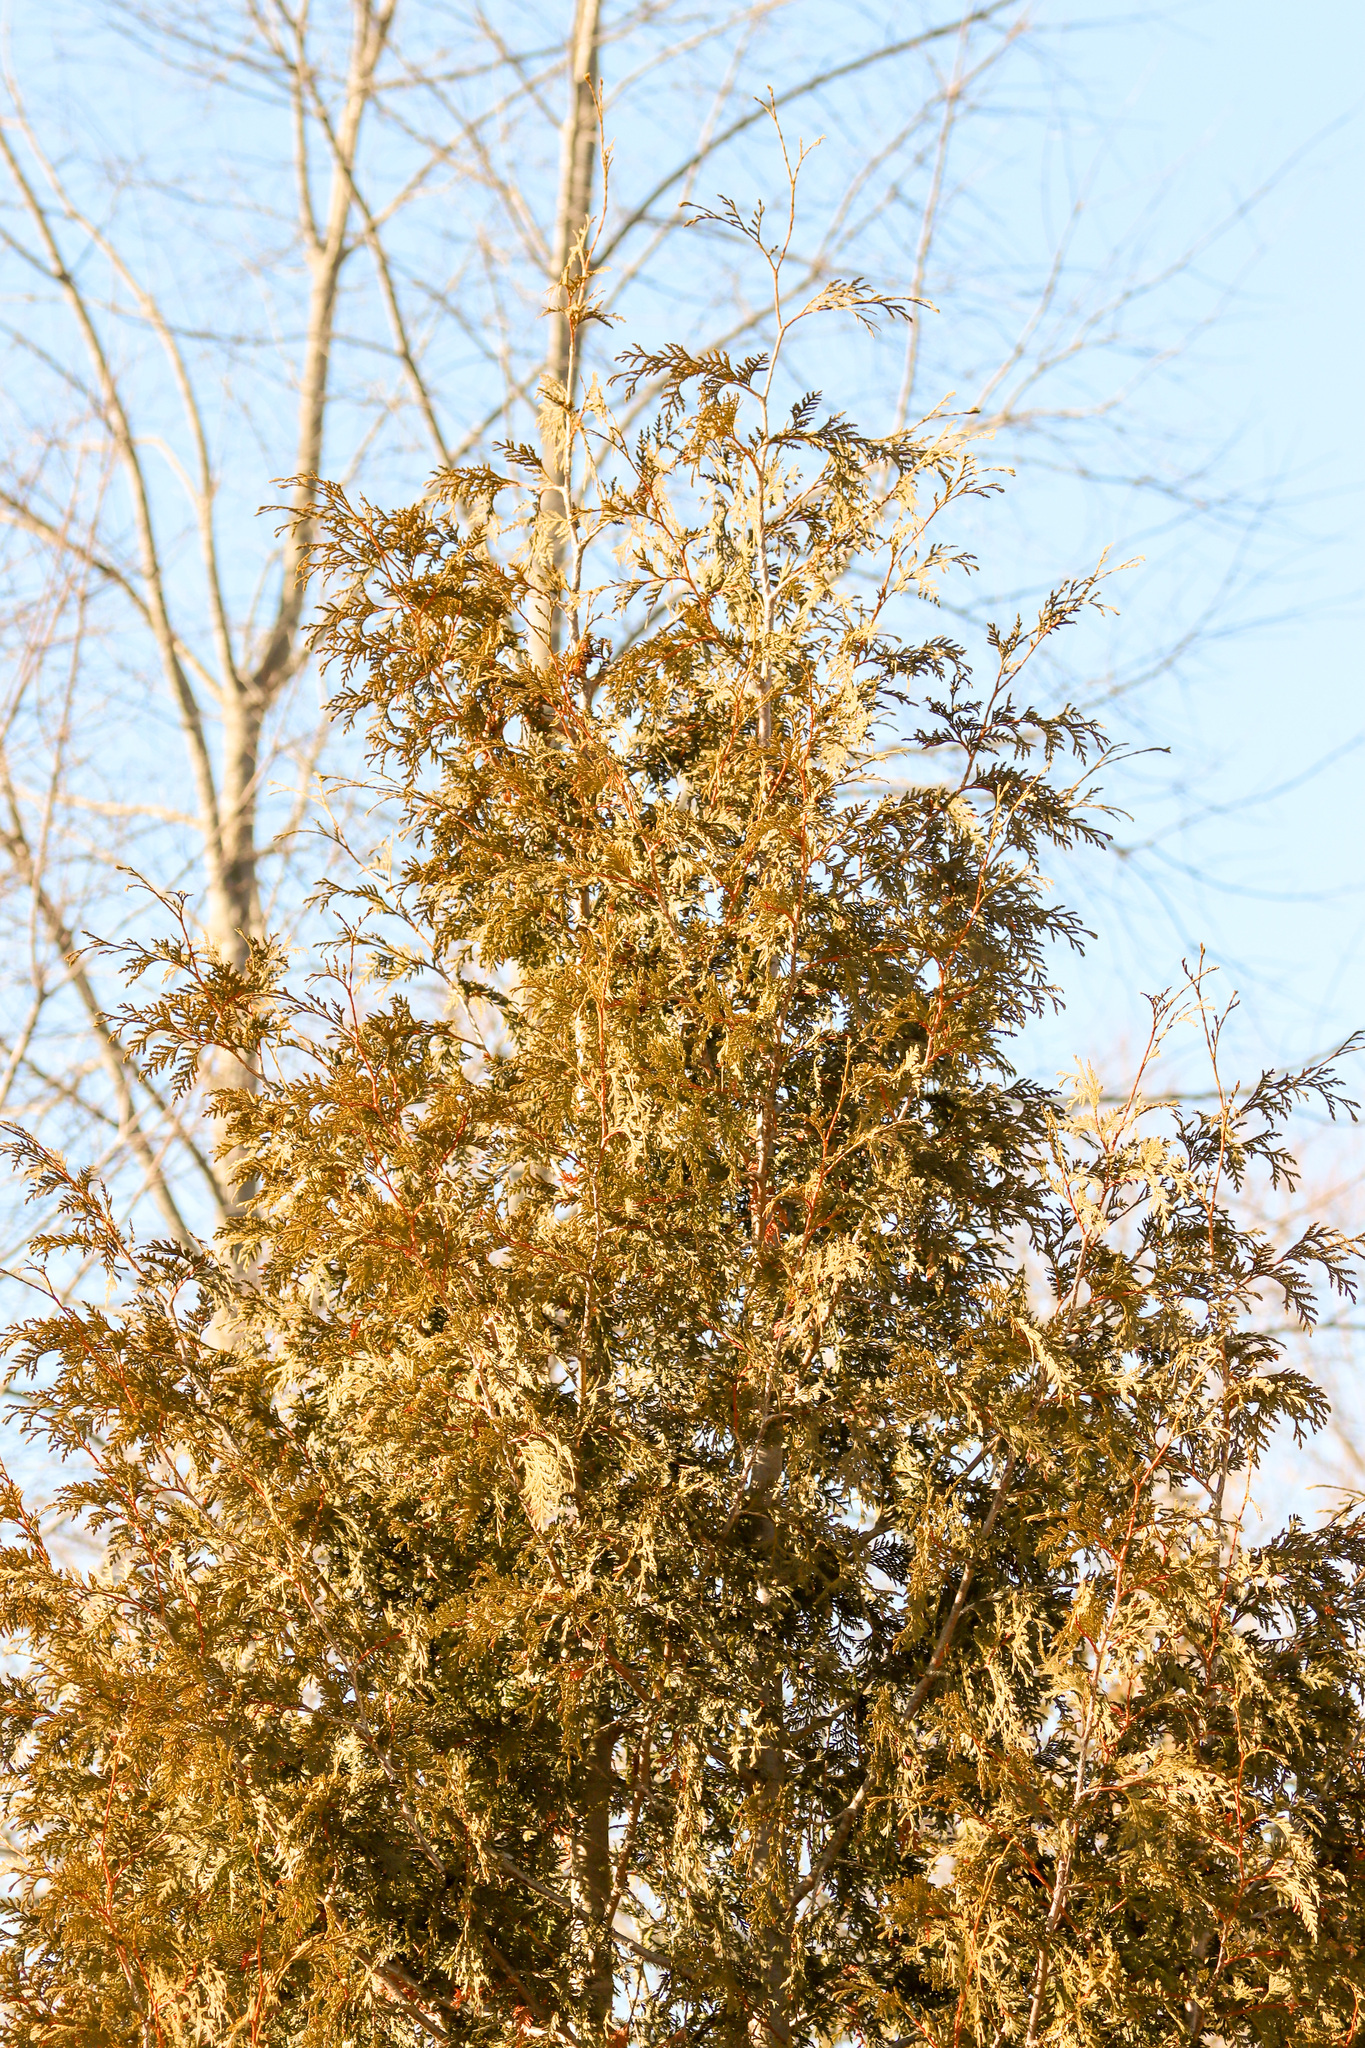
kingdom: Plantae
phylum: Tracheophyta
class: Pinopsida
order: Pinales
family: Cupressaceae
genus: Thuja
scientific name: Thuja occidentalis
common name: Northern white-cedar
